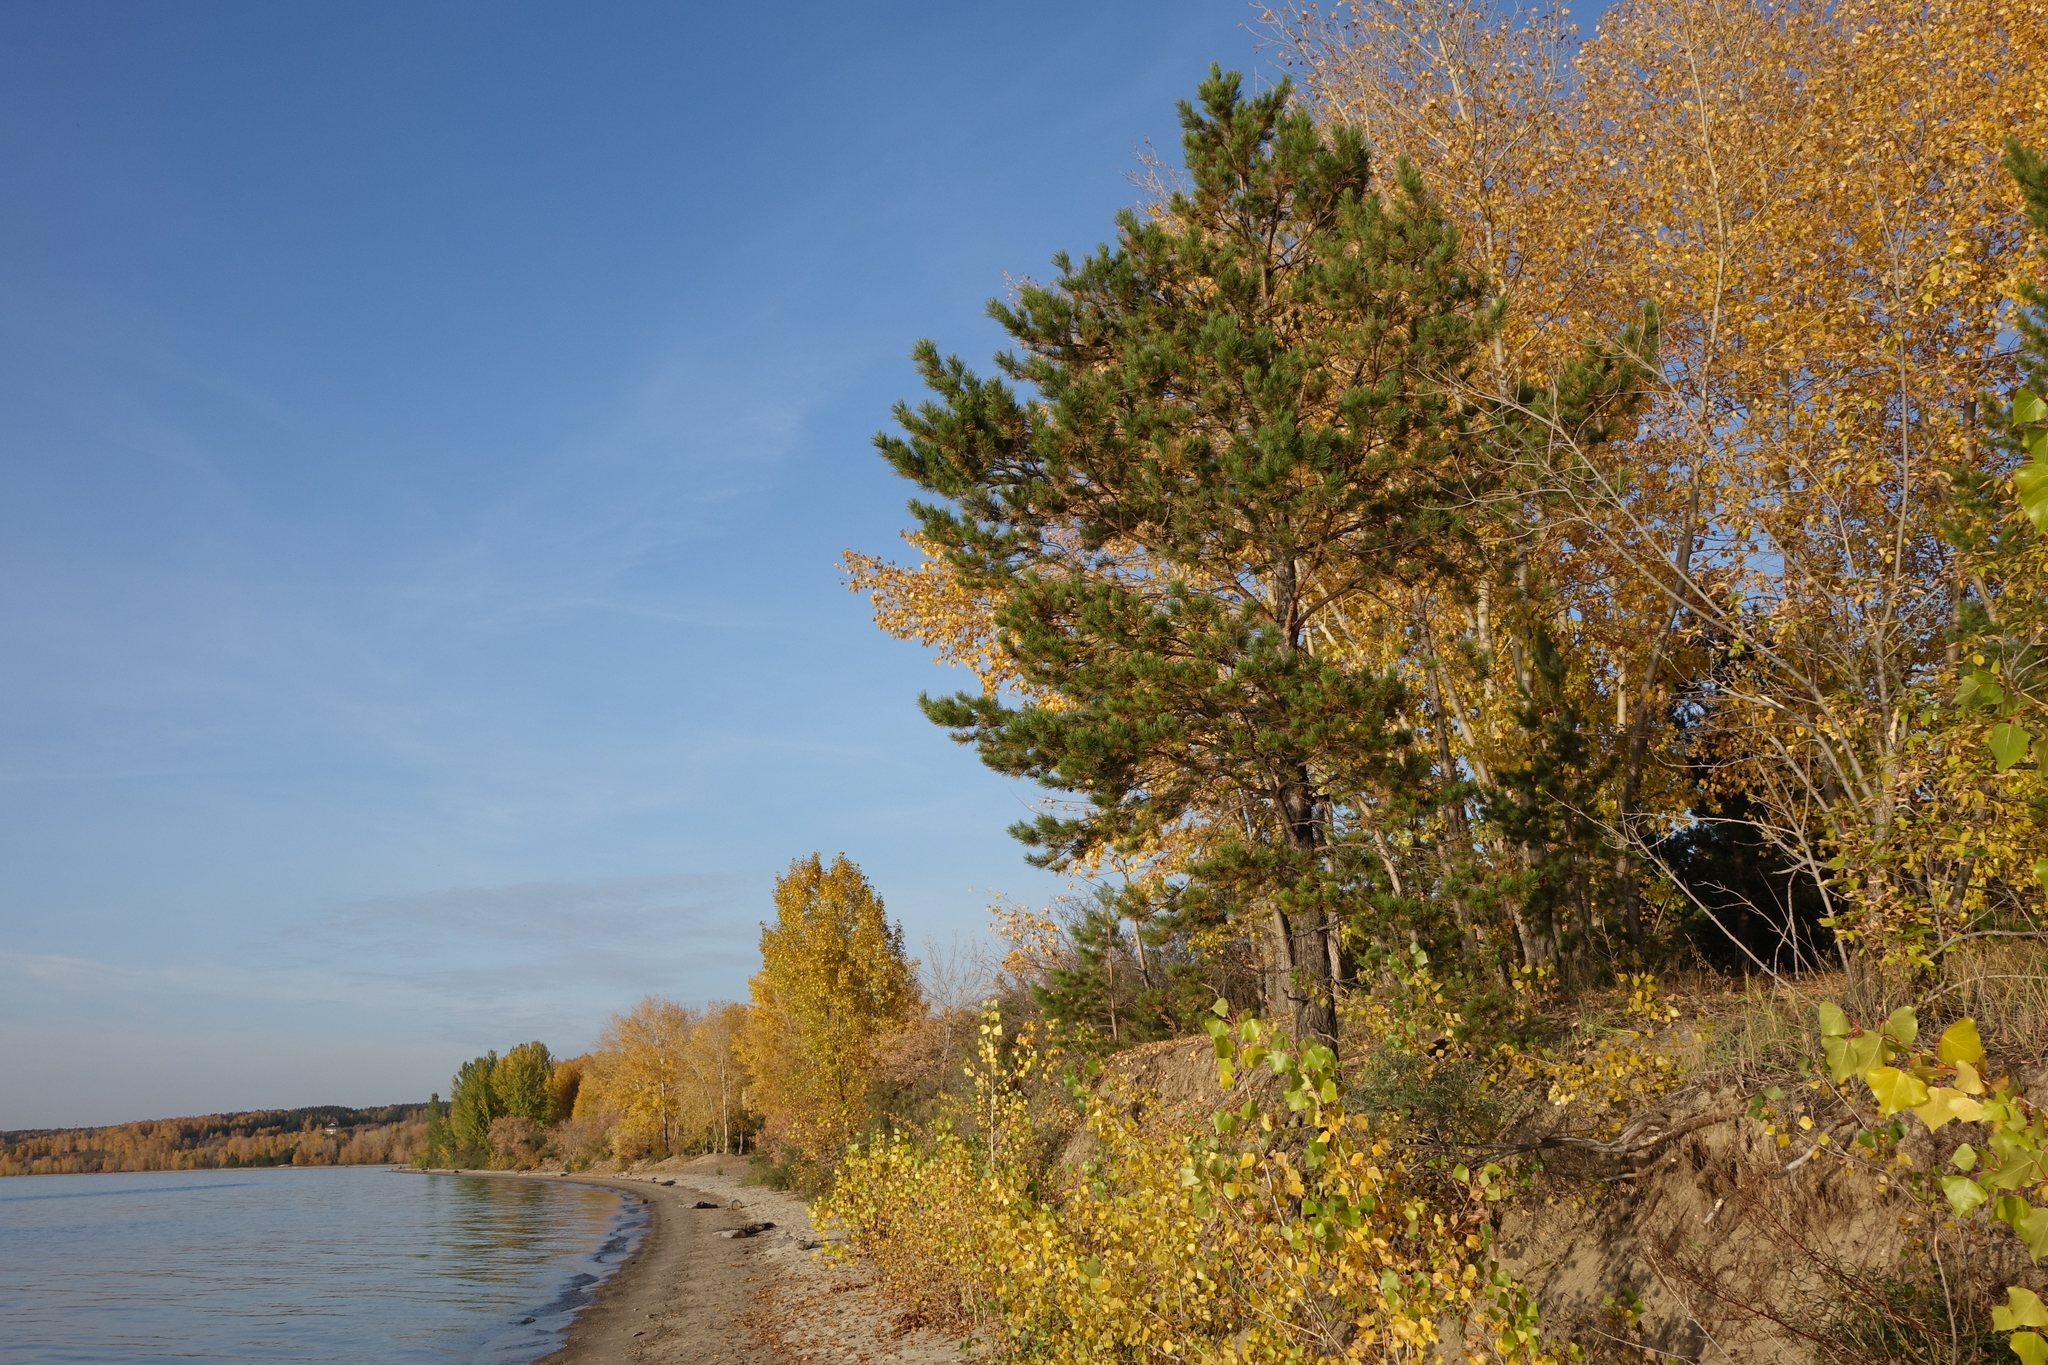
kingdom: Plantae
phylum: Tracheophyta
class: Pinopsida
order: Pinales
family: Pinaceae
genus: Pinus
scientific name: Pinus sylvestris
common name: Scots pine
